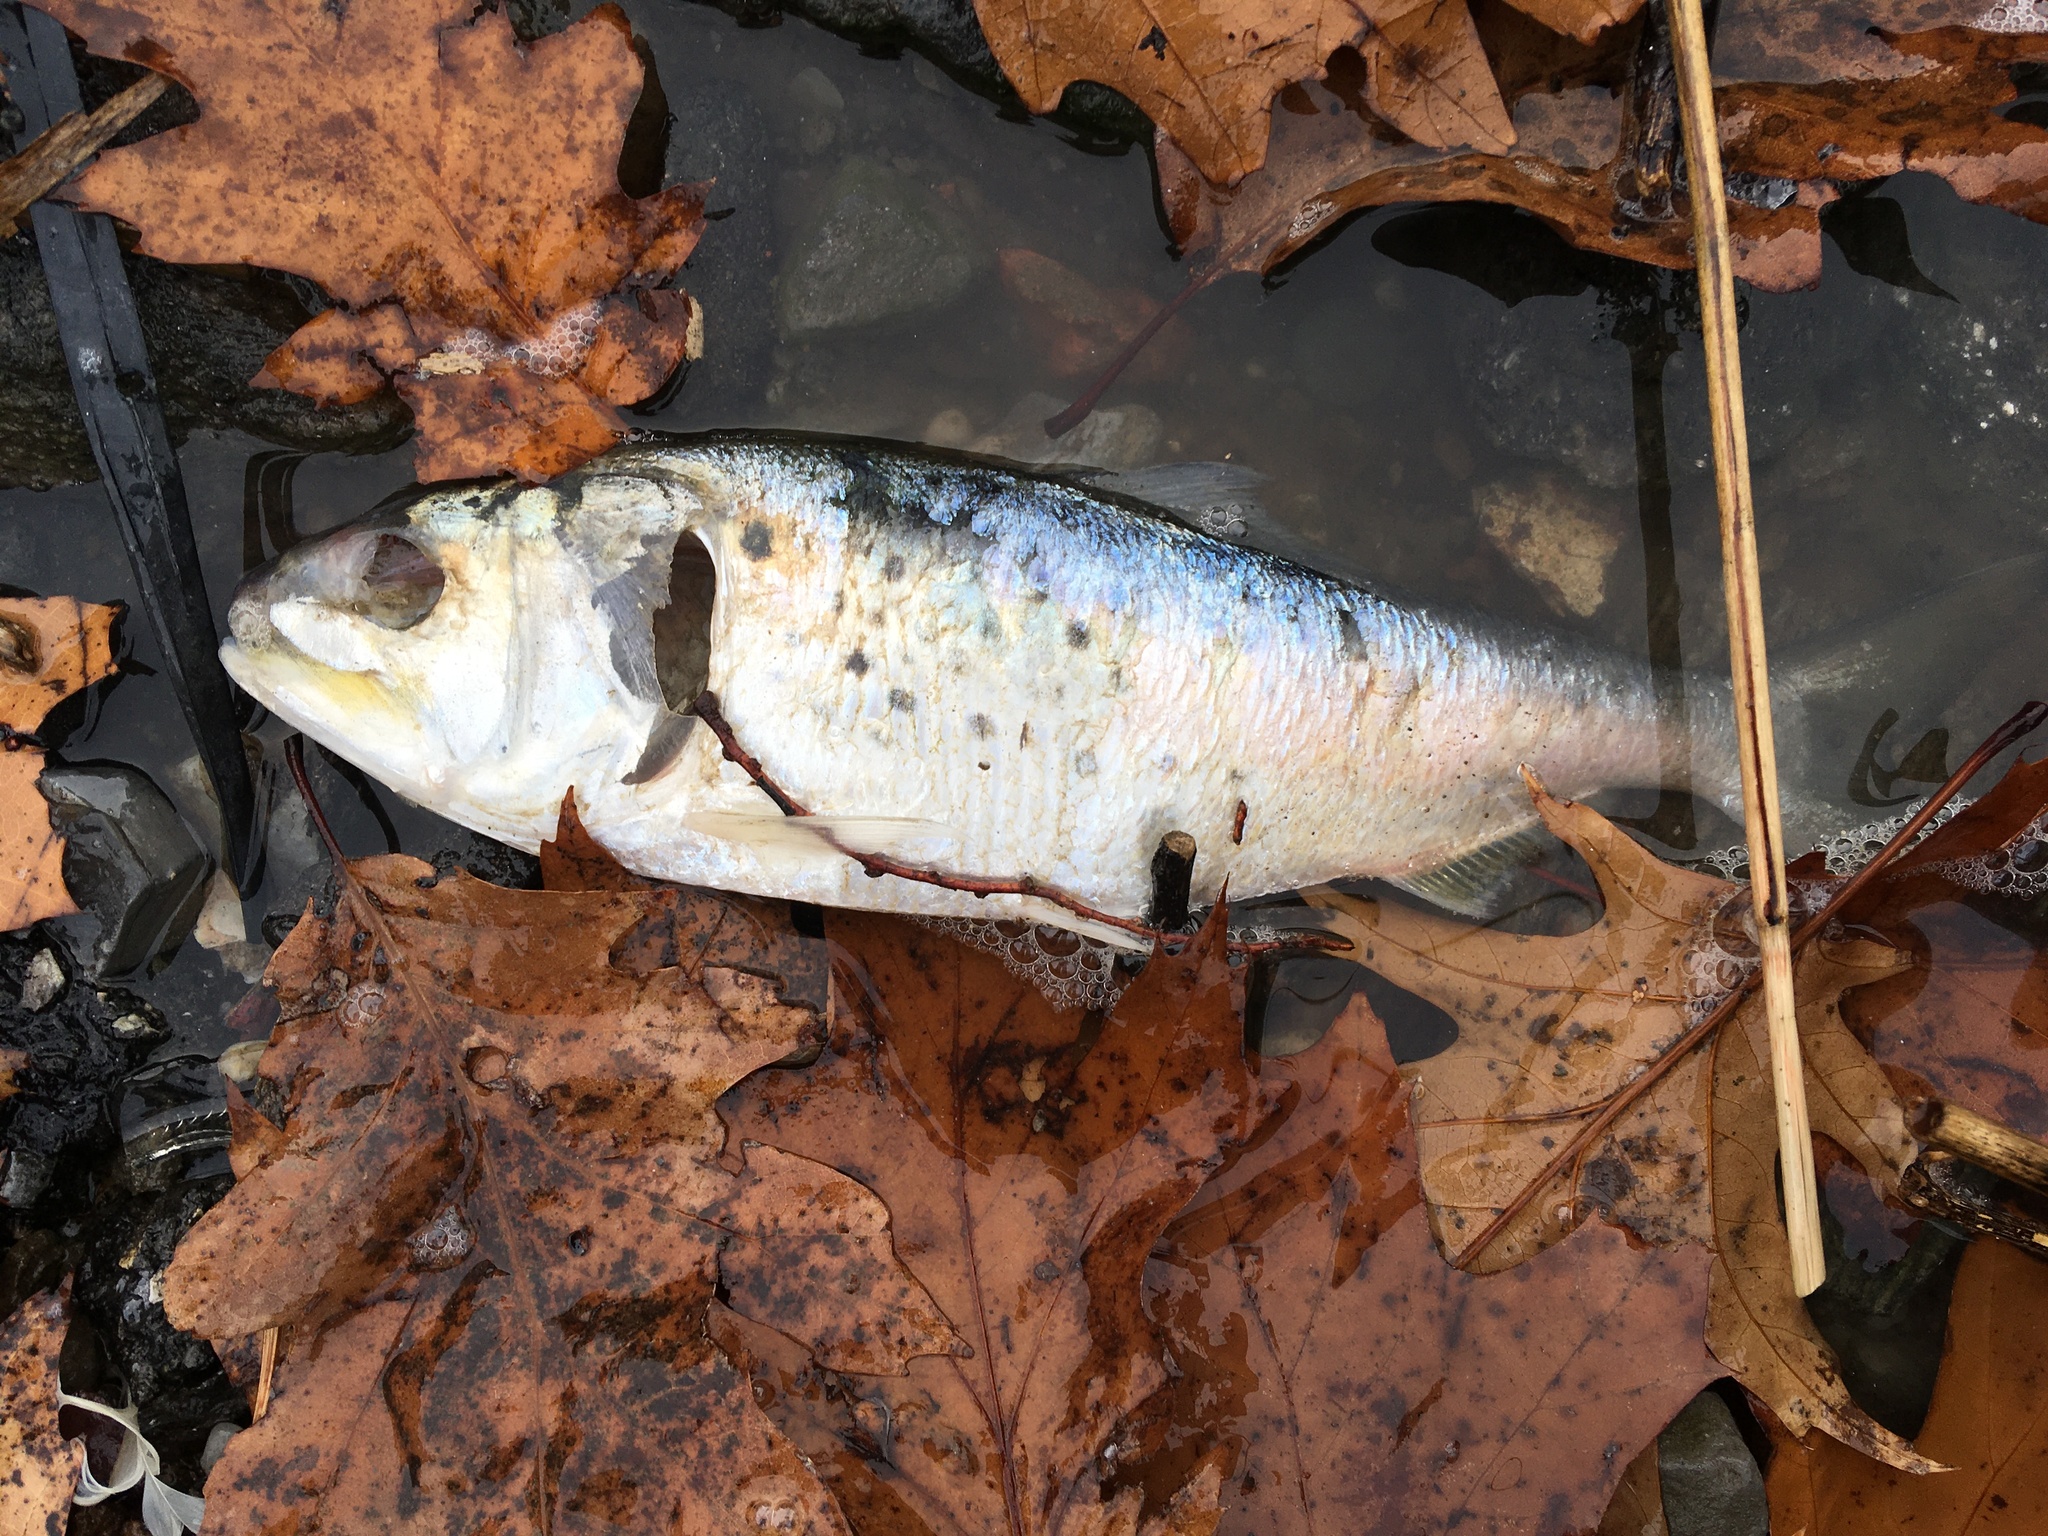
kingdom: Animalia
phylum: Chordata
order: Clupeiformes
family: Clupeidae
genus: Brevoortia
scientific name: Brevoortia tyrannus
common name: Atlantic menhaden
